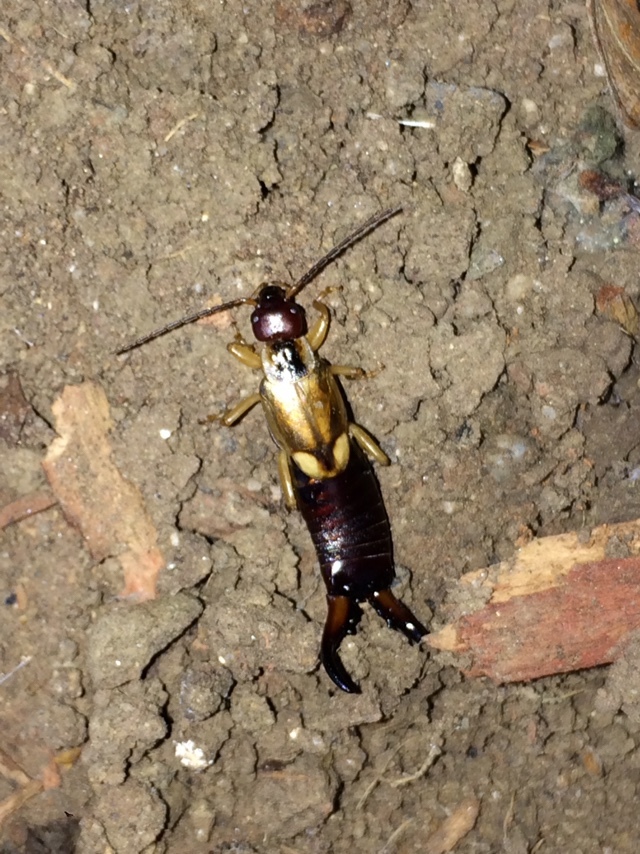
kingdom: Animalia
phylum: Arthropoda
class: Insecta
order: Dermaptera
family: Forficulidae
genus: Forficula
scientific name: Forficula
